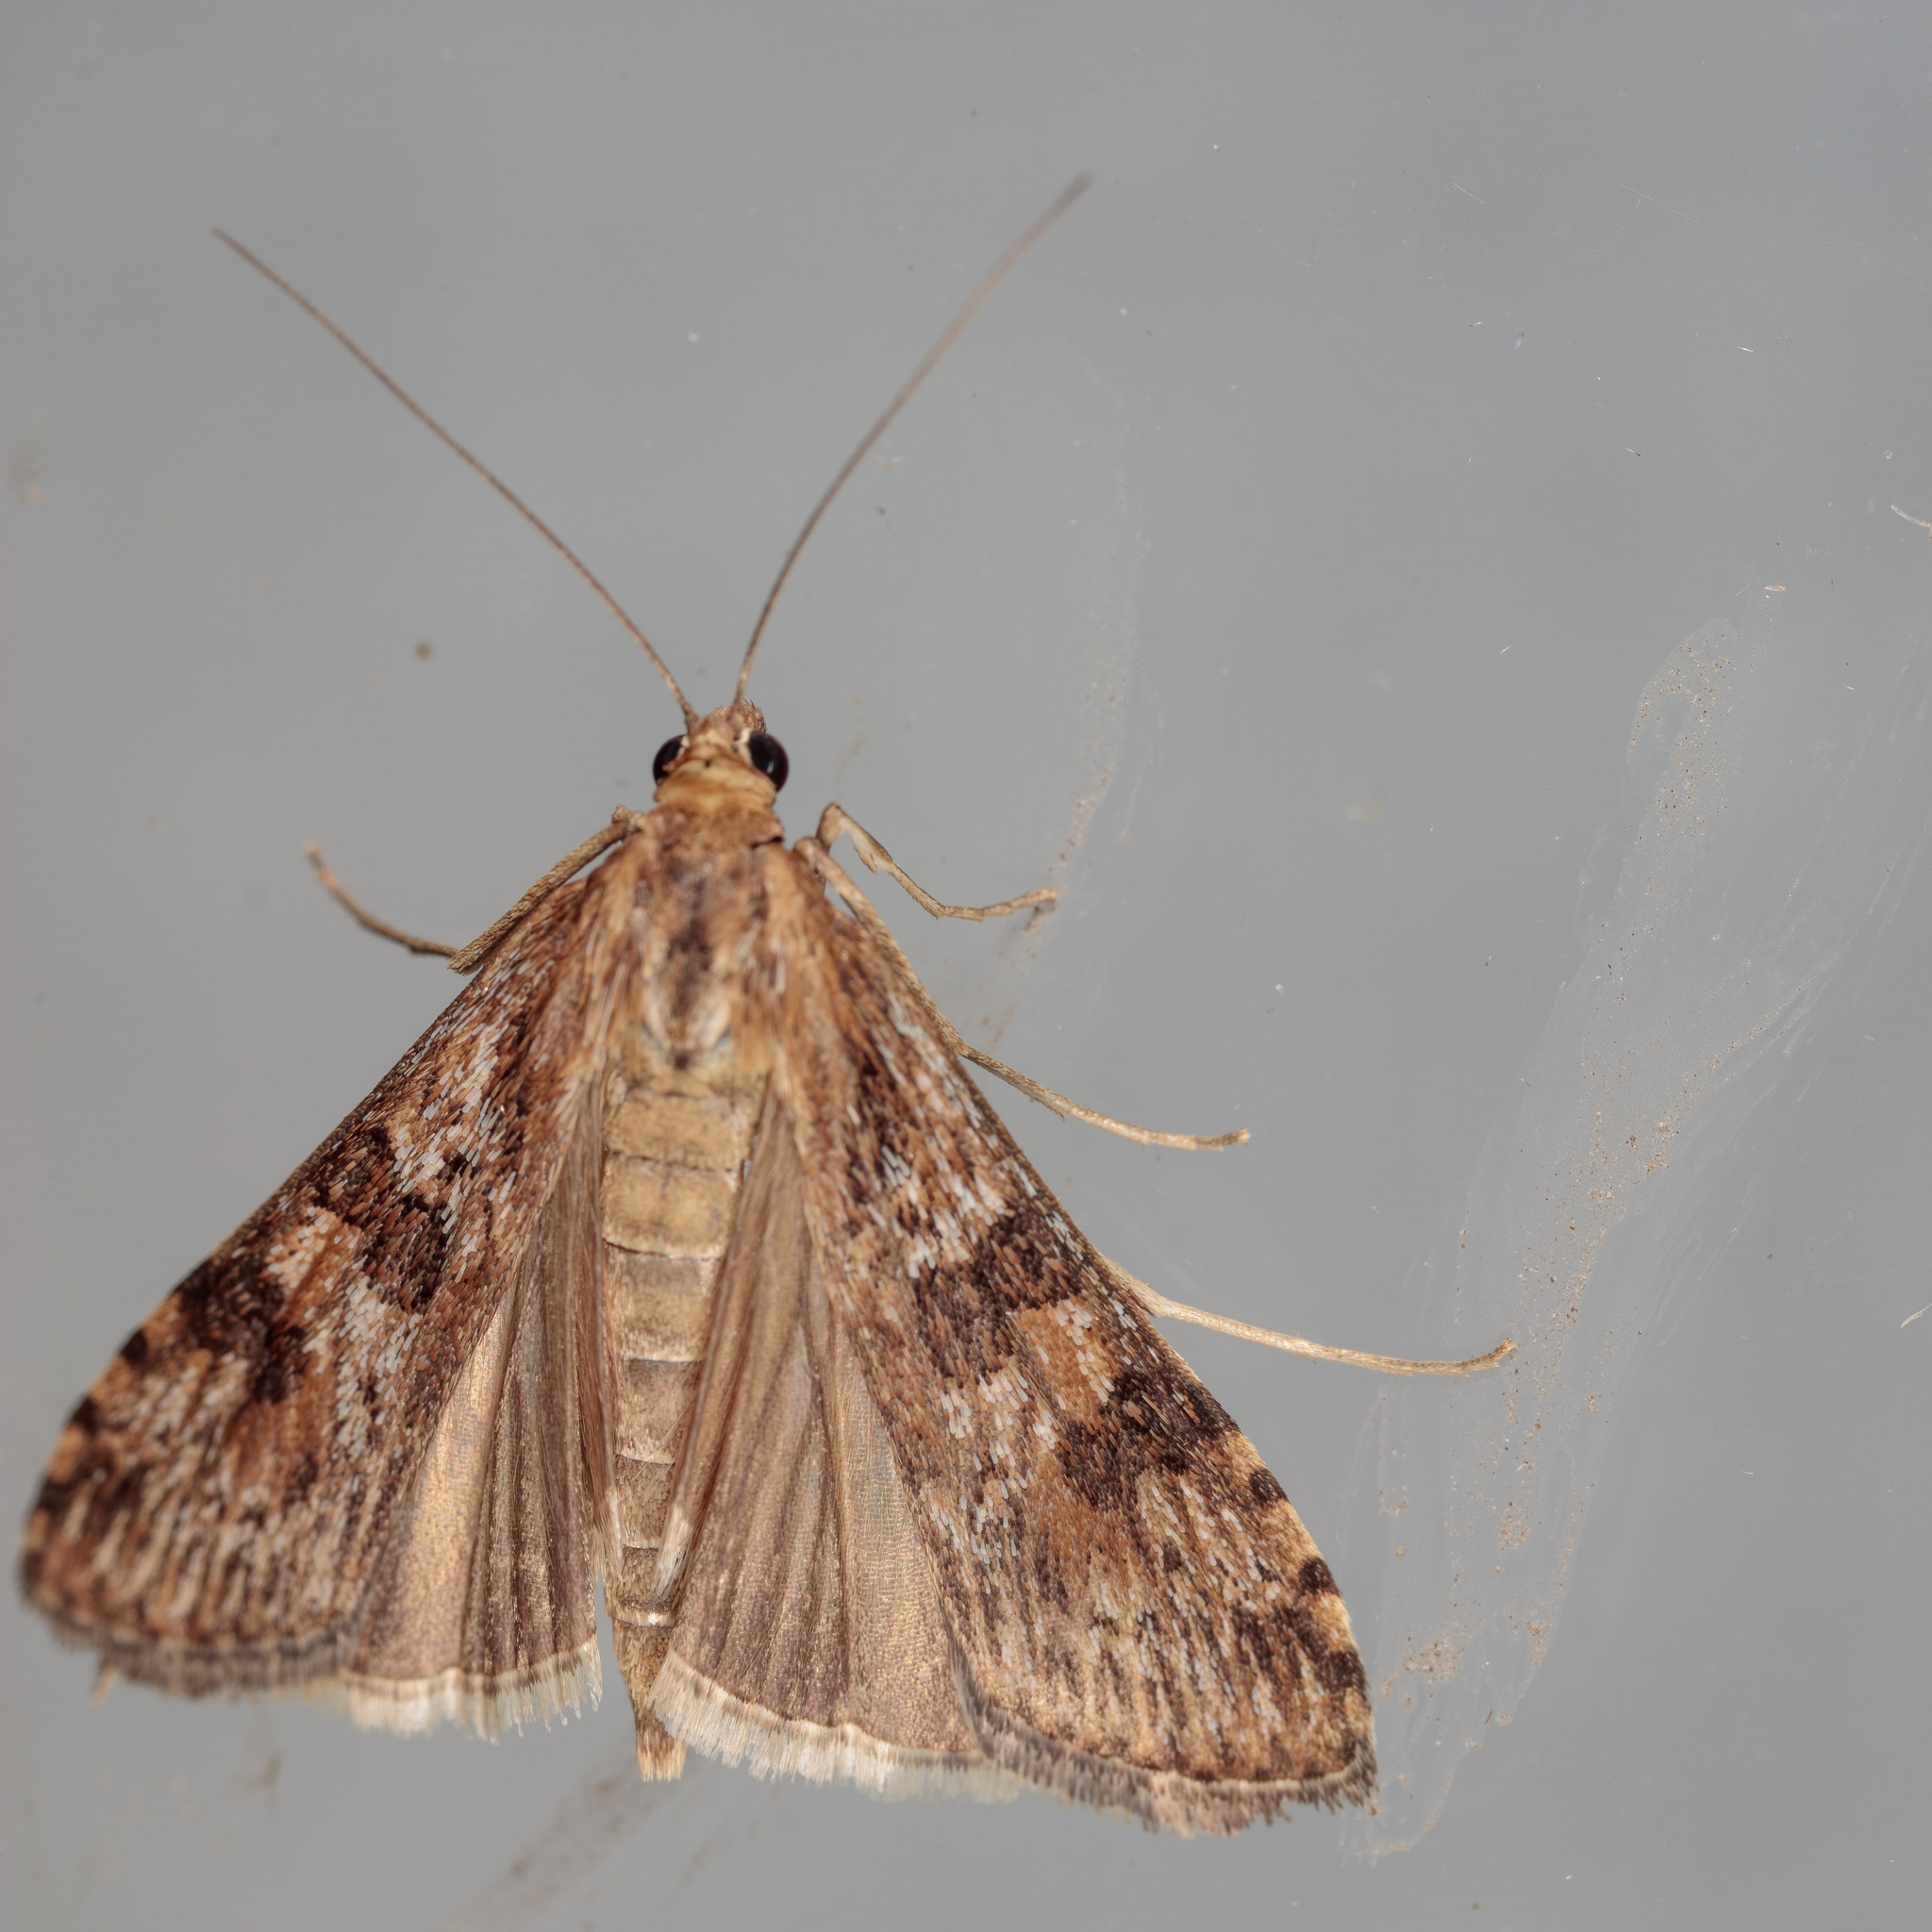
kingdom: Animalia
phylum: Arthropoda
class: Insecta
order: Lepidoptera
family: Crambidae
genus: Nomophila
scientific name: Nomophila nearctica
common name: American rush veneer
